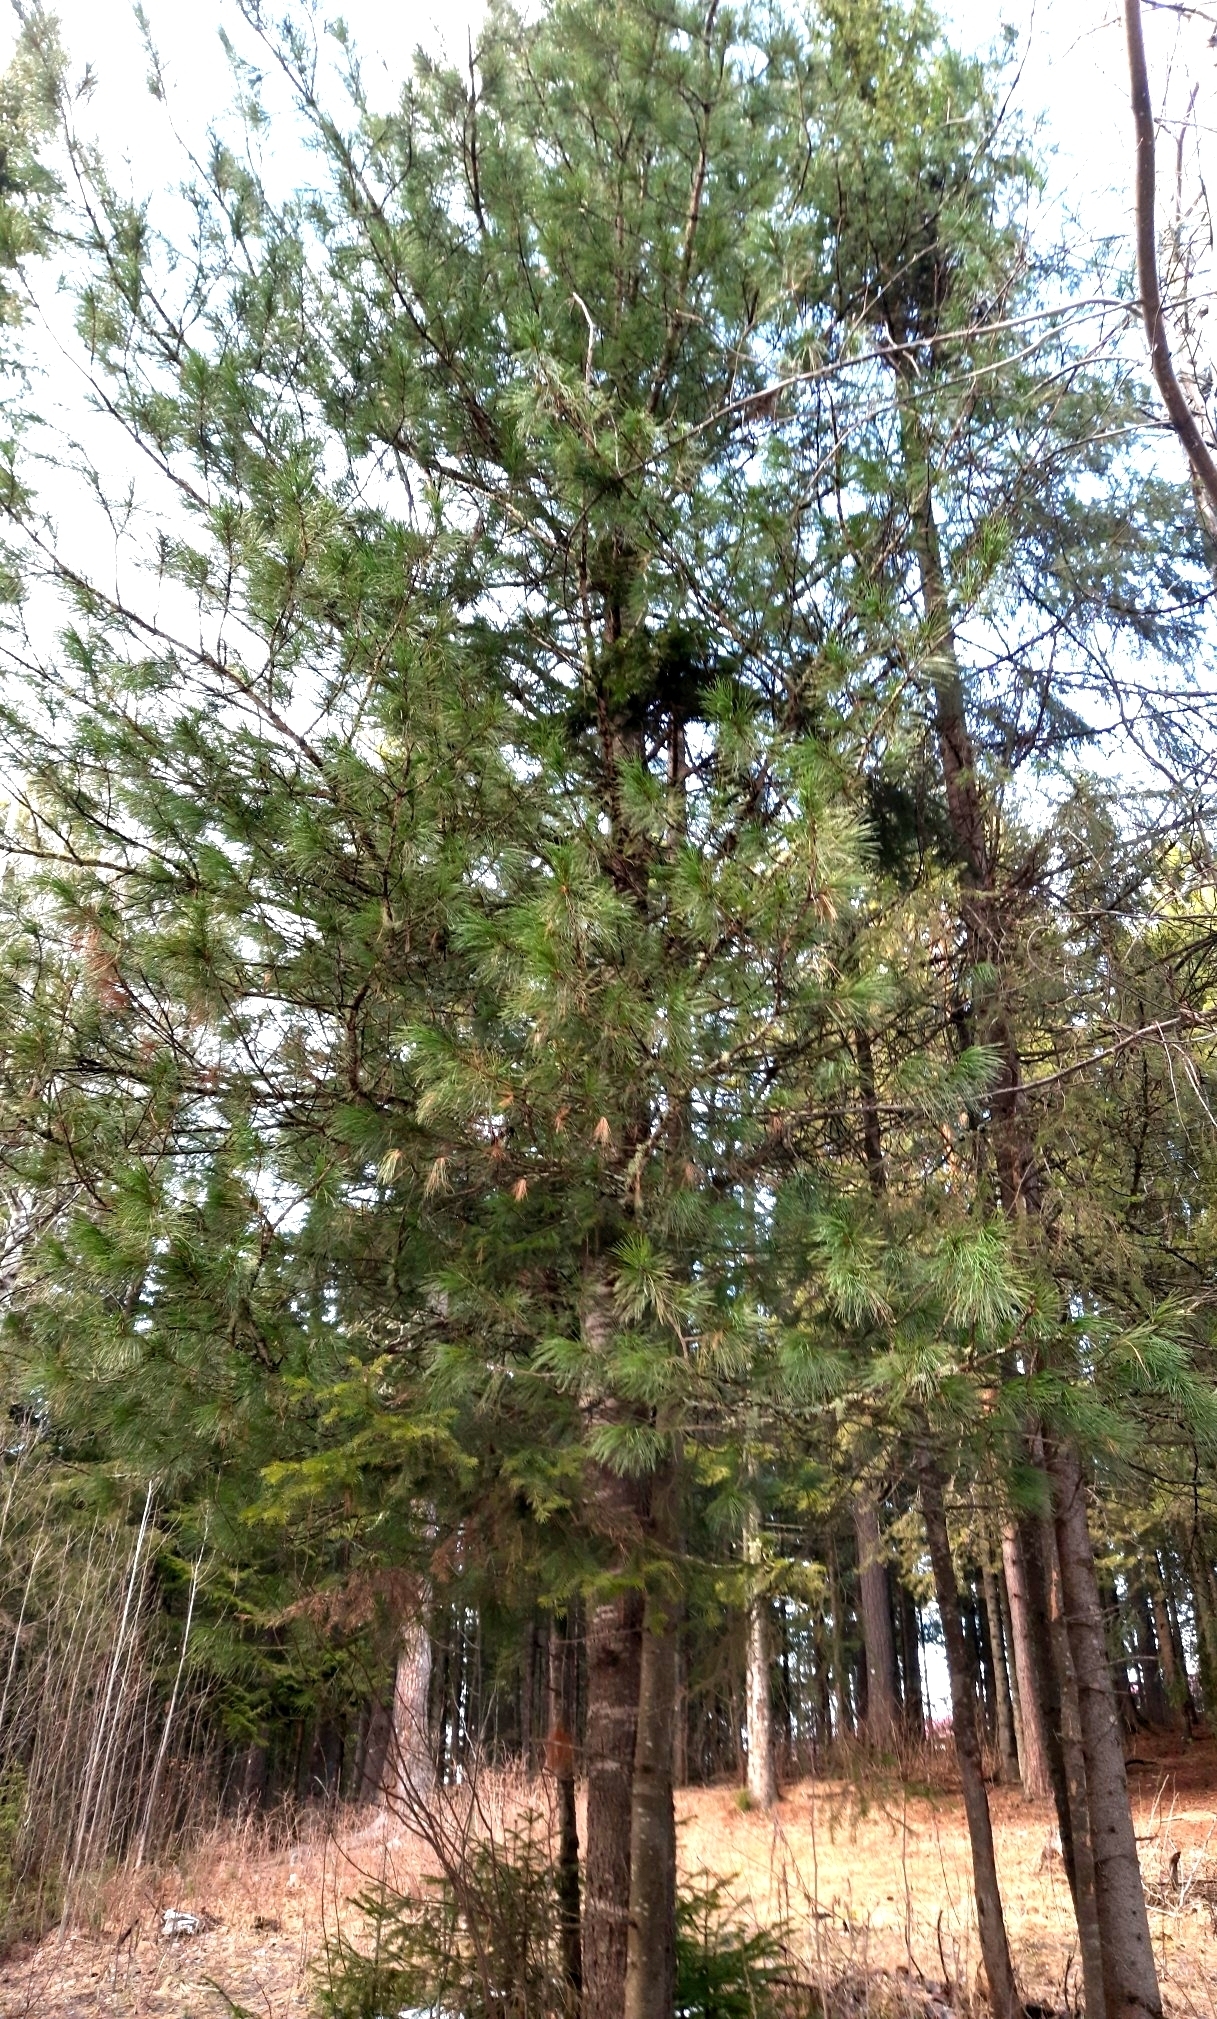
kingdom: Plantae
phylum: Tracheophyta
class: Pinopsida
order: Pinales
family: Pinaceae
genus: Pinus
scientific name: Pinus sibirica
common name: Siberian pine
